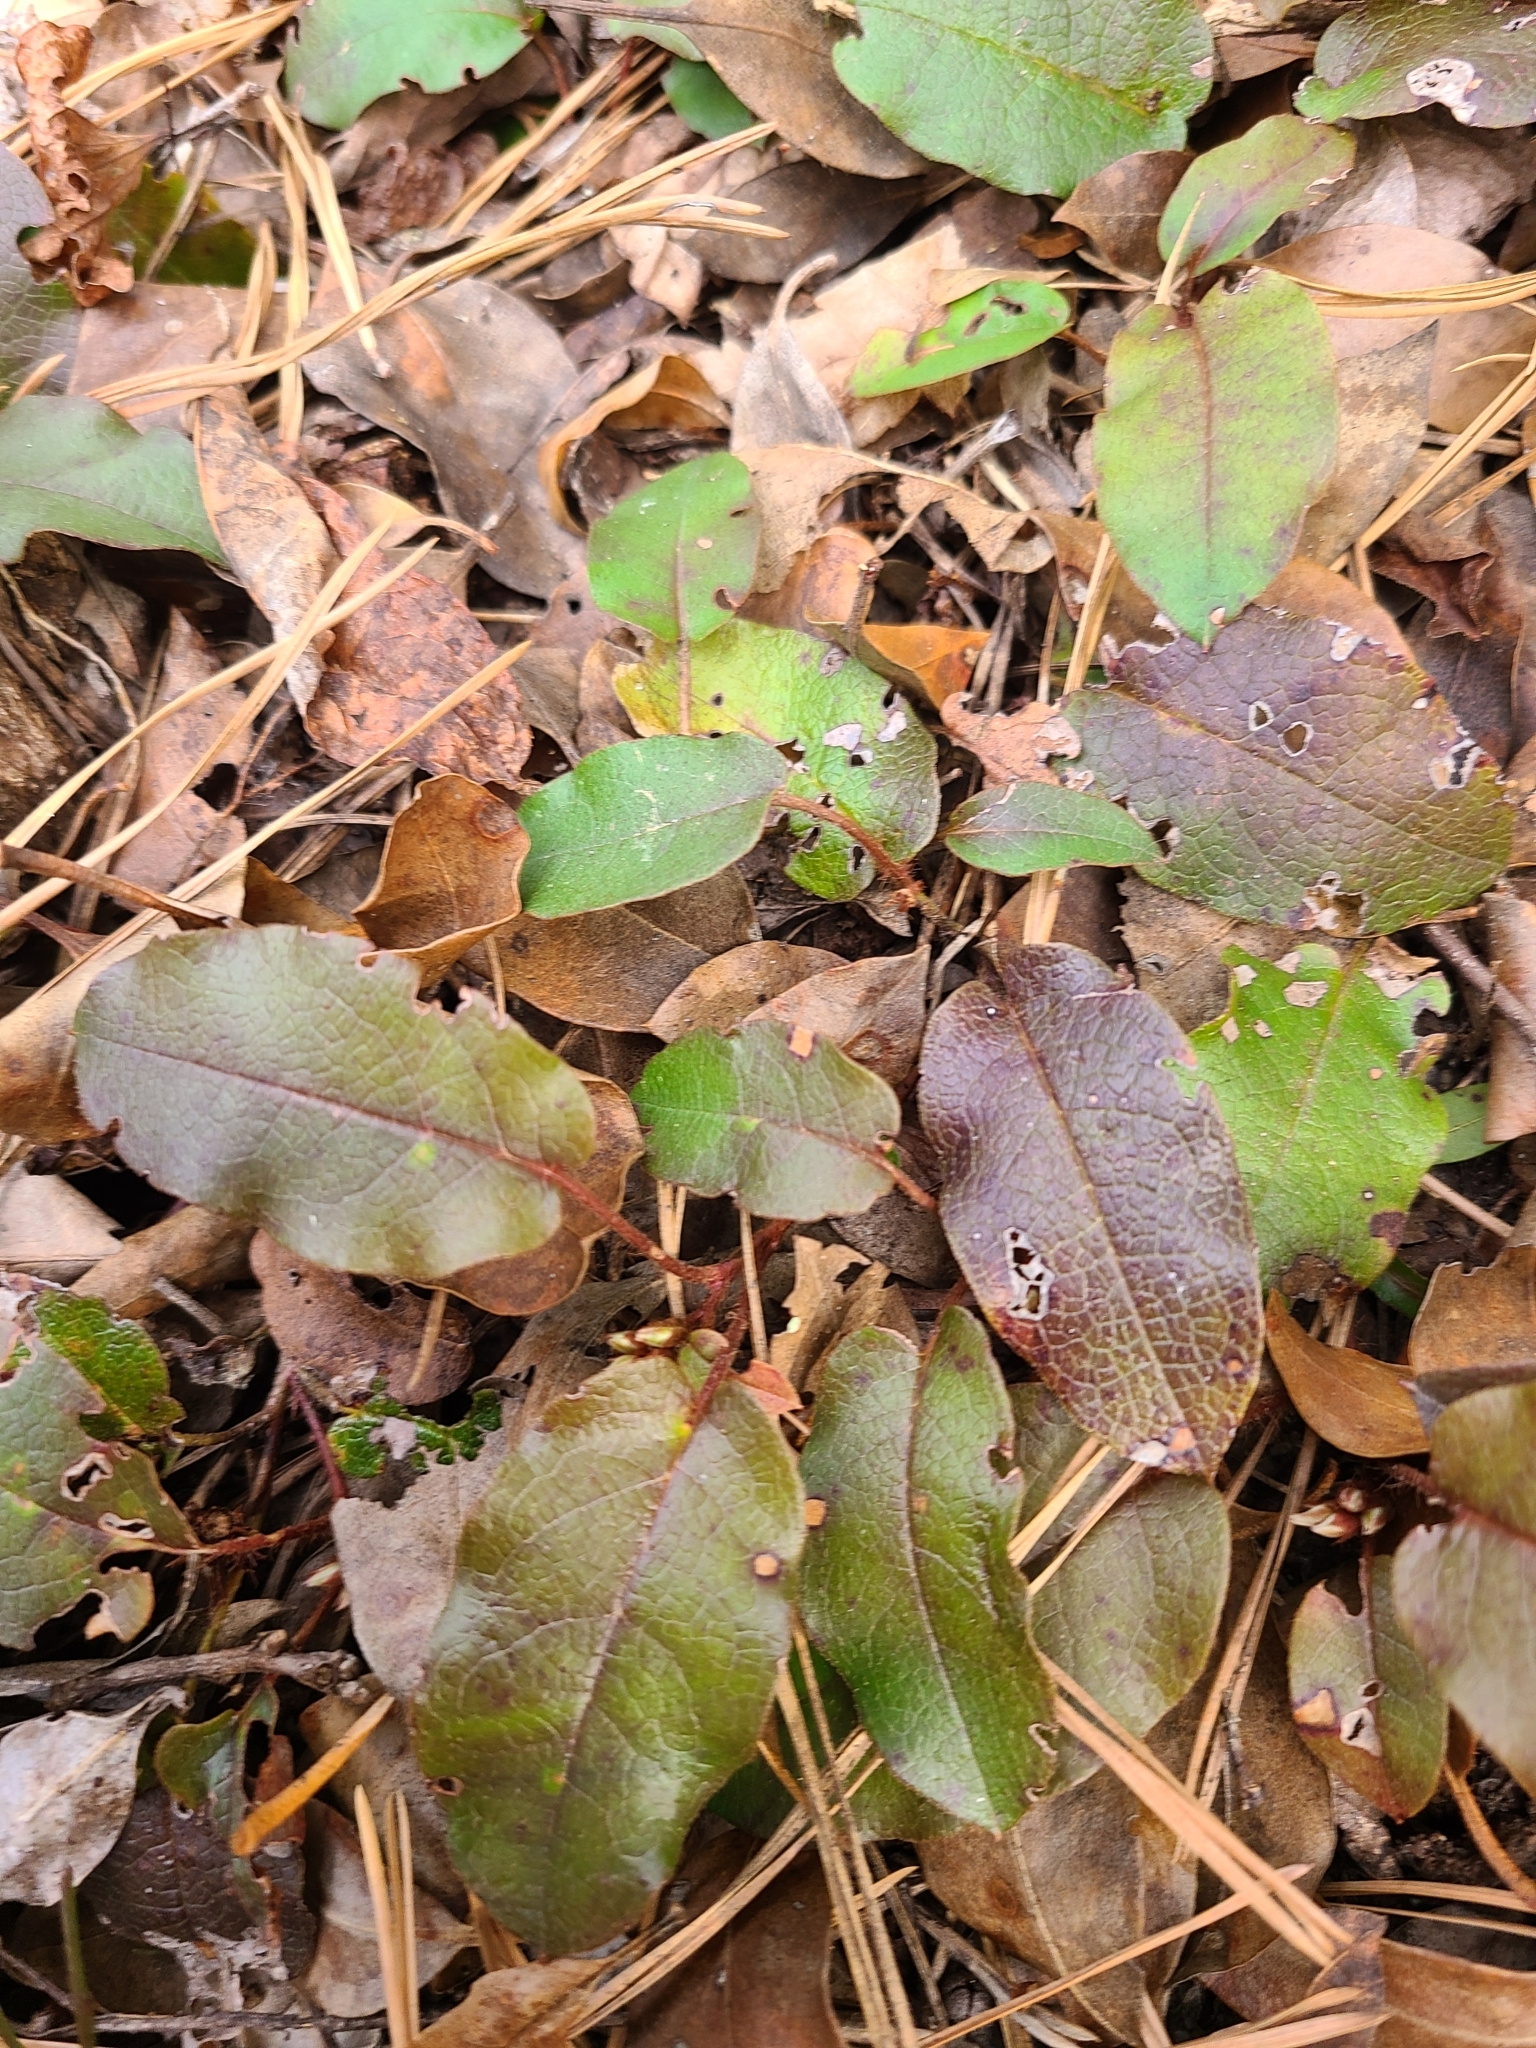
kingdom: Plantae
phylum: Tracheophyta
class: Magnoliopsida
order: Ericales
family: Ericaceae
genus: Epigaea
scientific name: Epigaea repens
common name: Gravelroot
